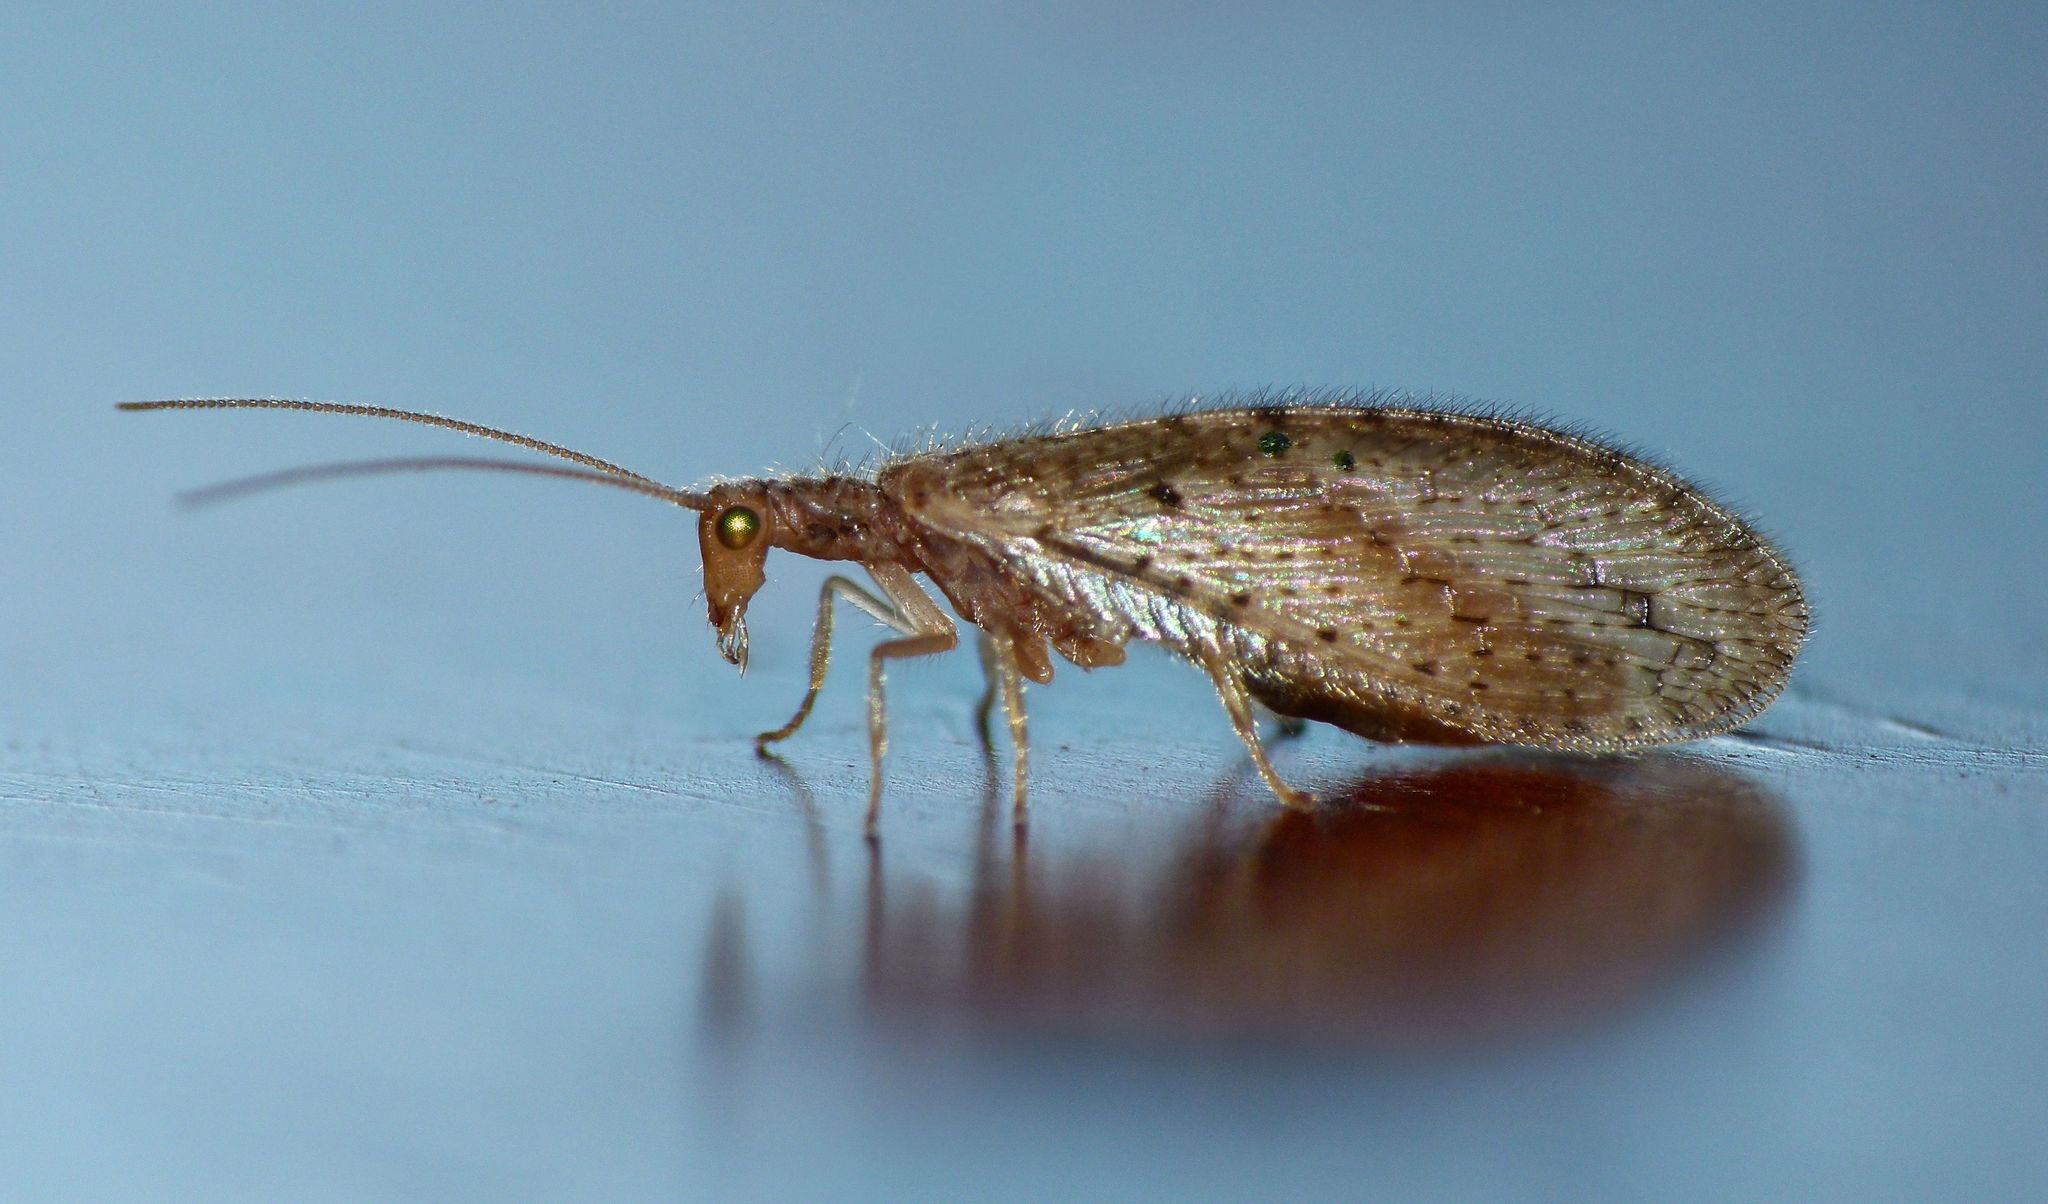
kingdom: Animalia
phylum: Arthropoda
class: Insecta
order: Neuroptera
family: Hemerobiidae
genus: Micromus
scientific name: Micromus tasmaniae
